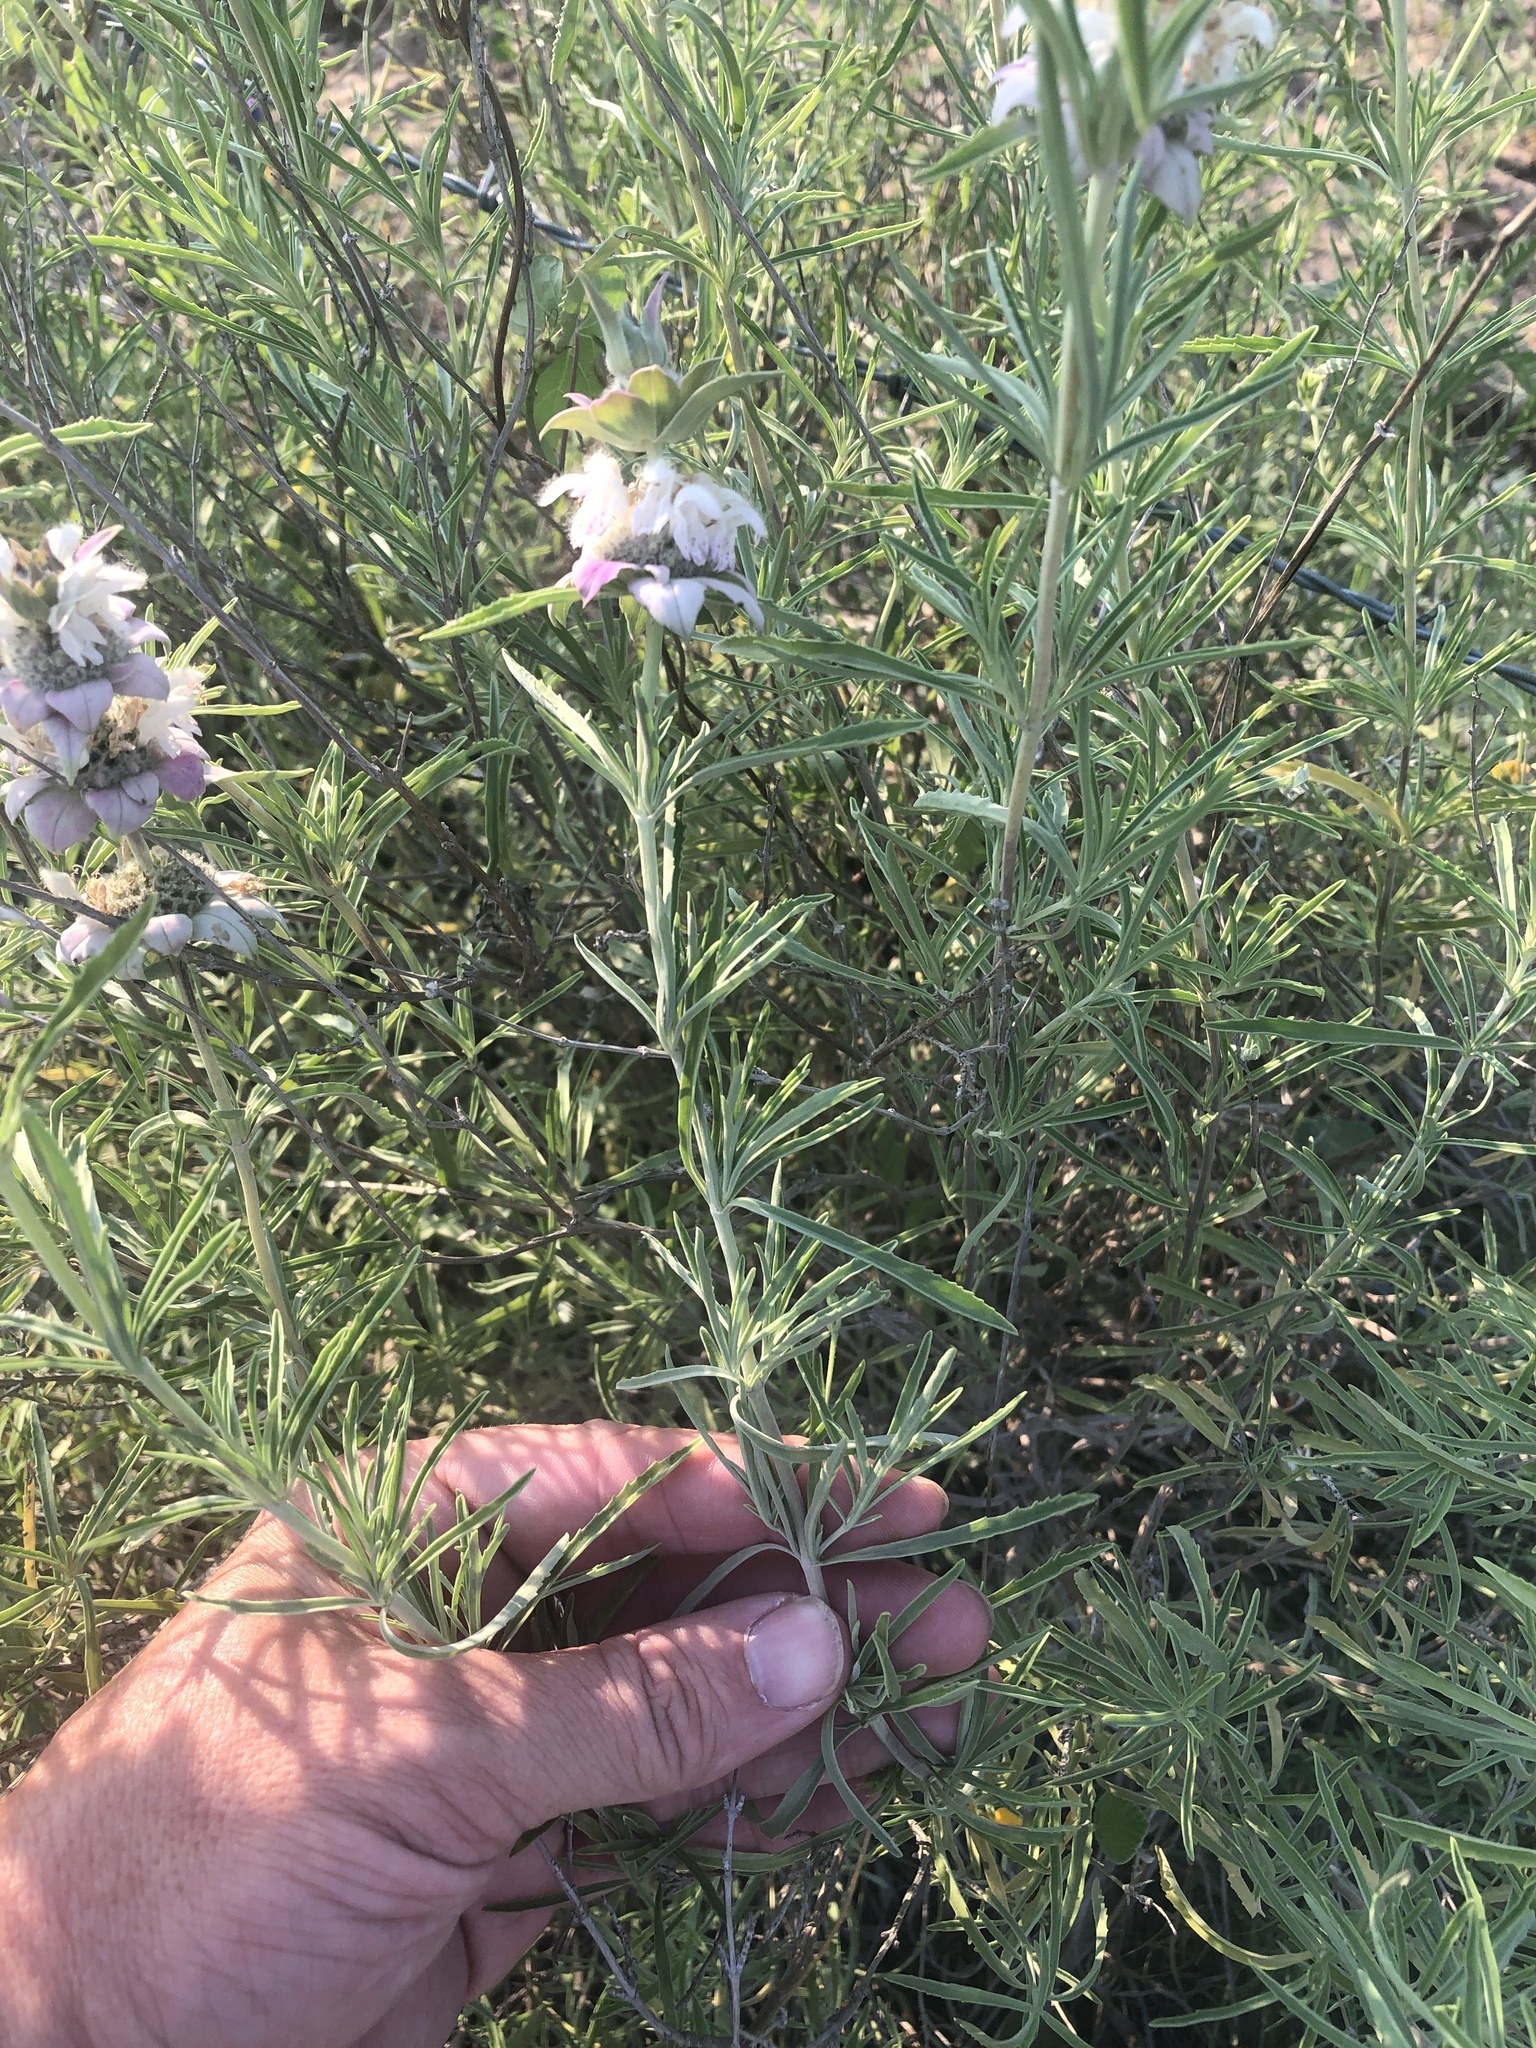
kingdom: Plantae
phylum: Tracheophyta
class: Magnoliopsida
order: Lamiales
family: Lamiaceae
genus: Monarda
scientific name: Monarda fruticulosa
